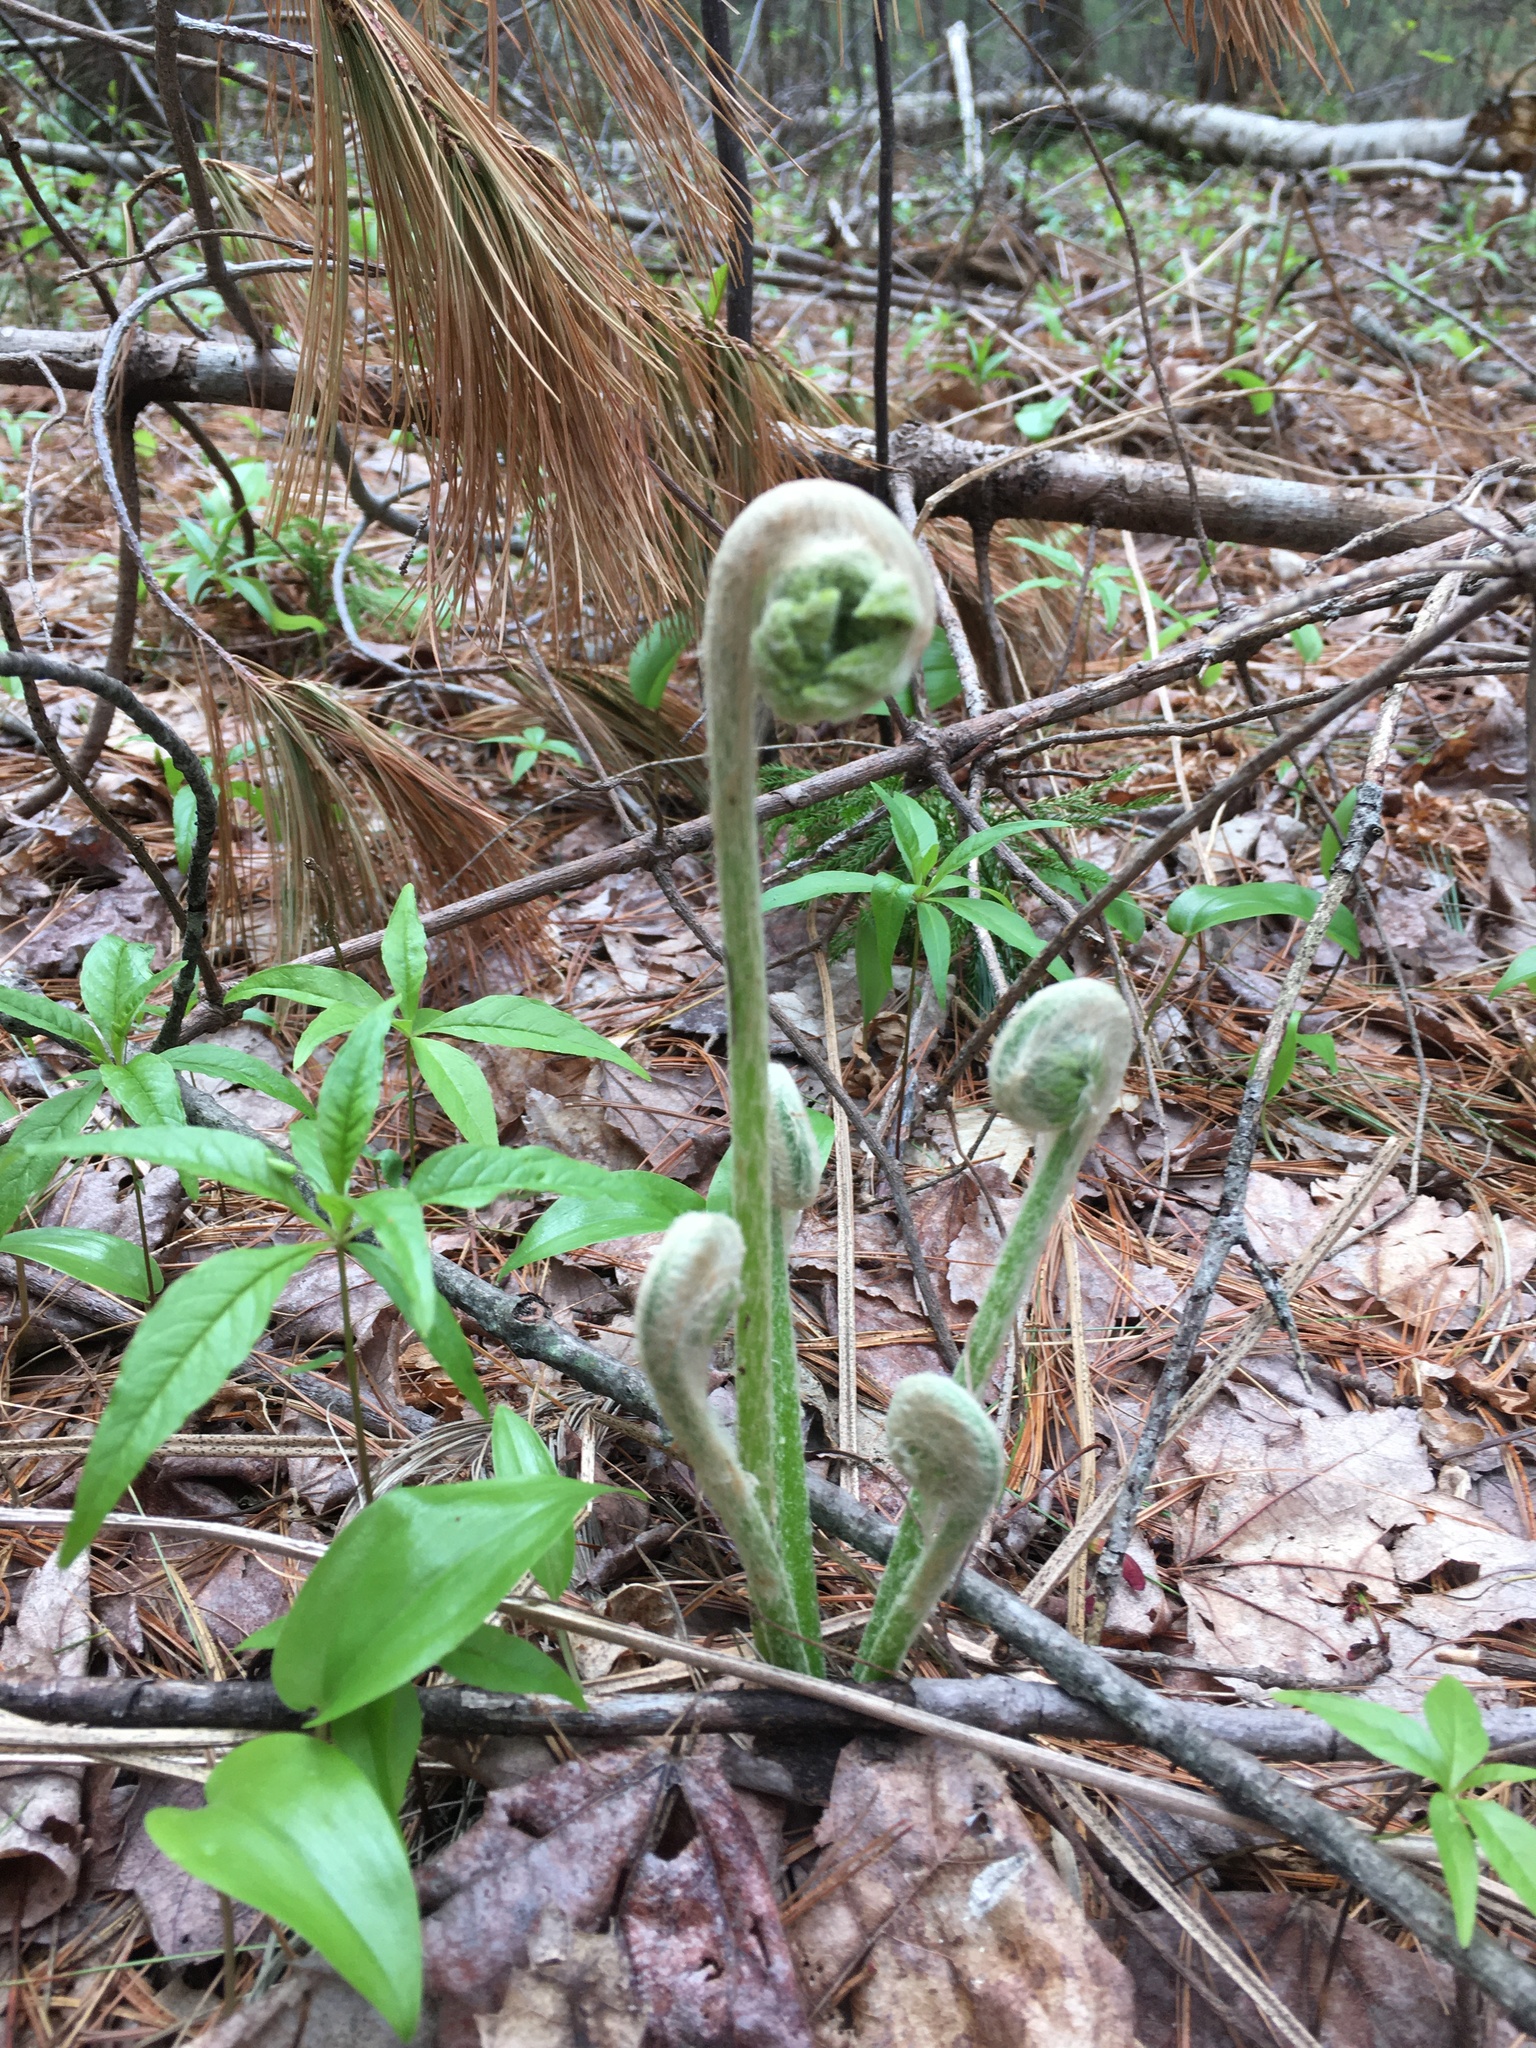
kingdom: Plantae
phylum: Tracheophyta
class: Polypodiopsida
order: Osmundales
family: Osmundaceae
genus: Osmundastrum
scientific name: Osmundastrum cinnamomeum
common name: Cinnamon fern
